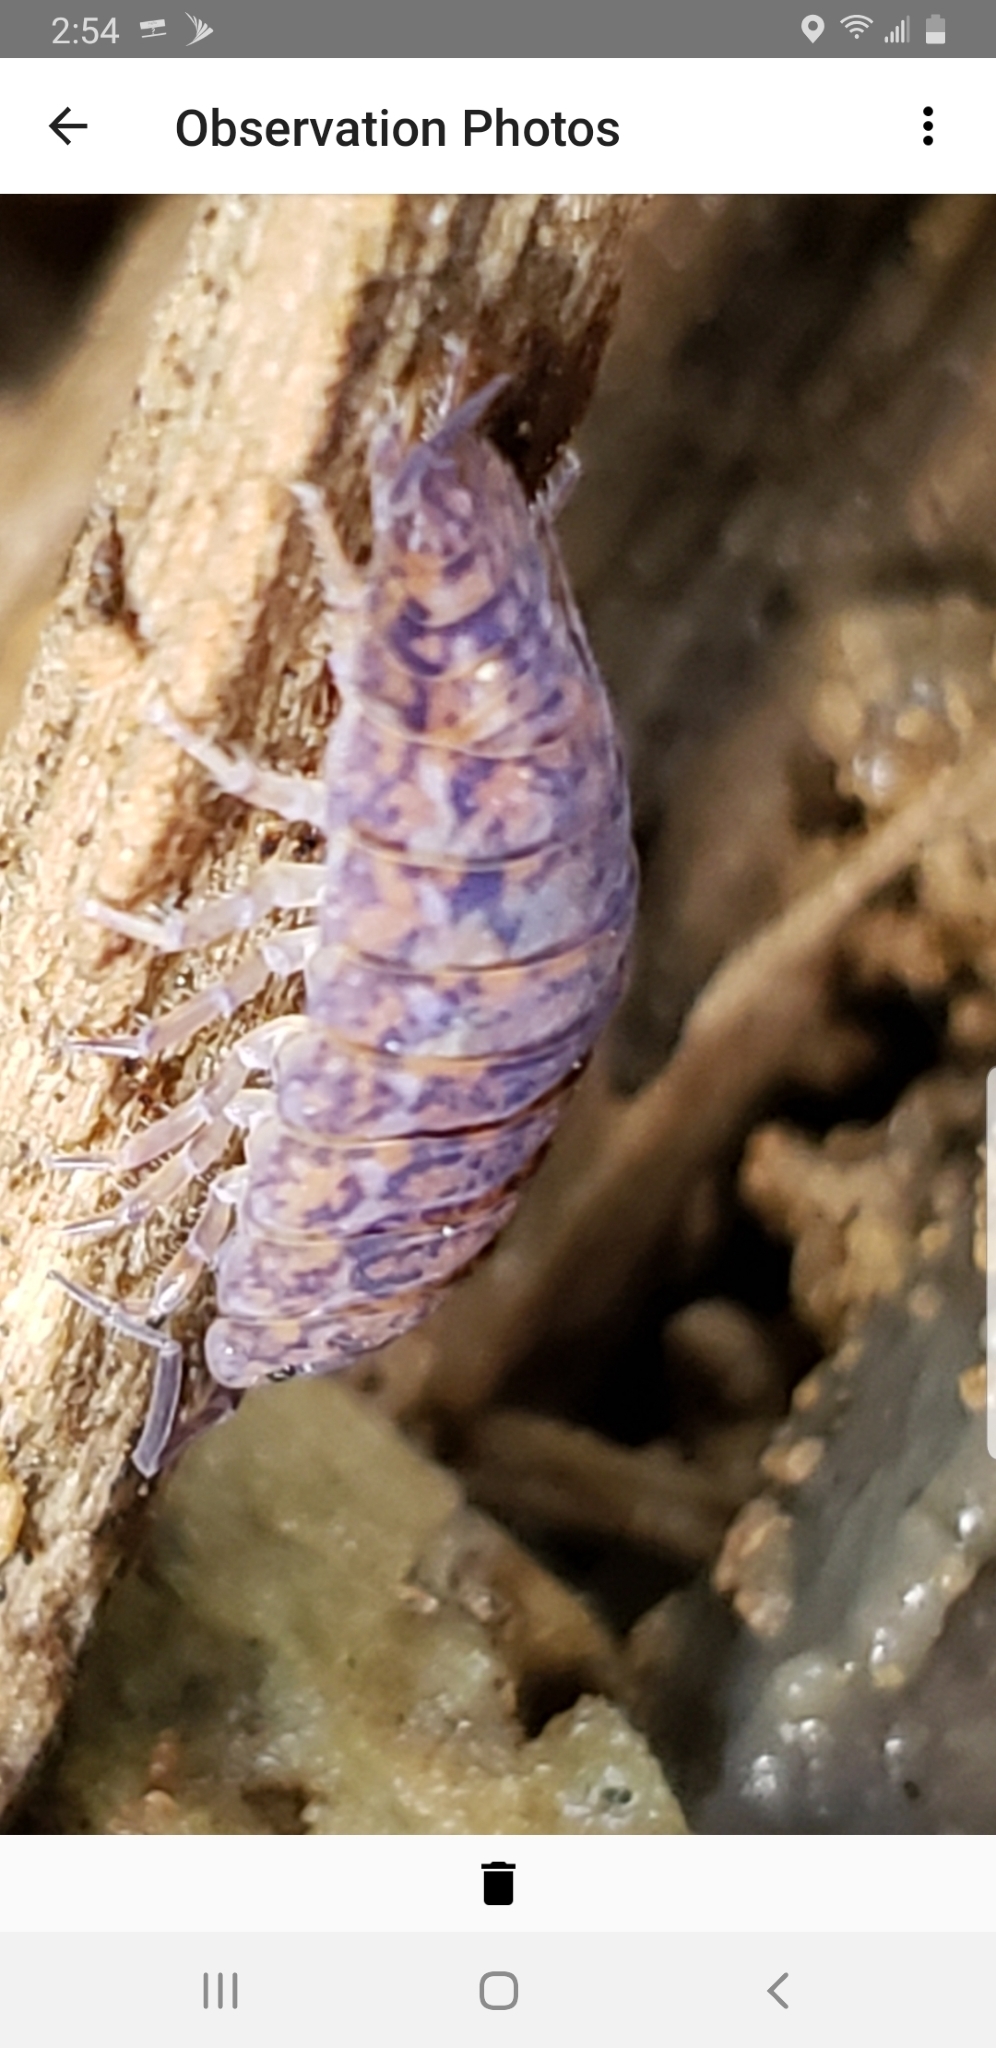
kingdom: Viruses
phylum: Nucleocytoviricota
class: Megaviricetes
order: Pimascovirales
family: Iridoviridae
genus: Iridovirus
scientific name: Iridovirus Invertebrate iridescent virus 31
